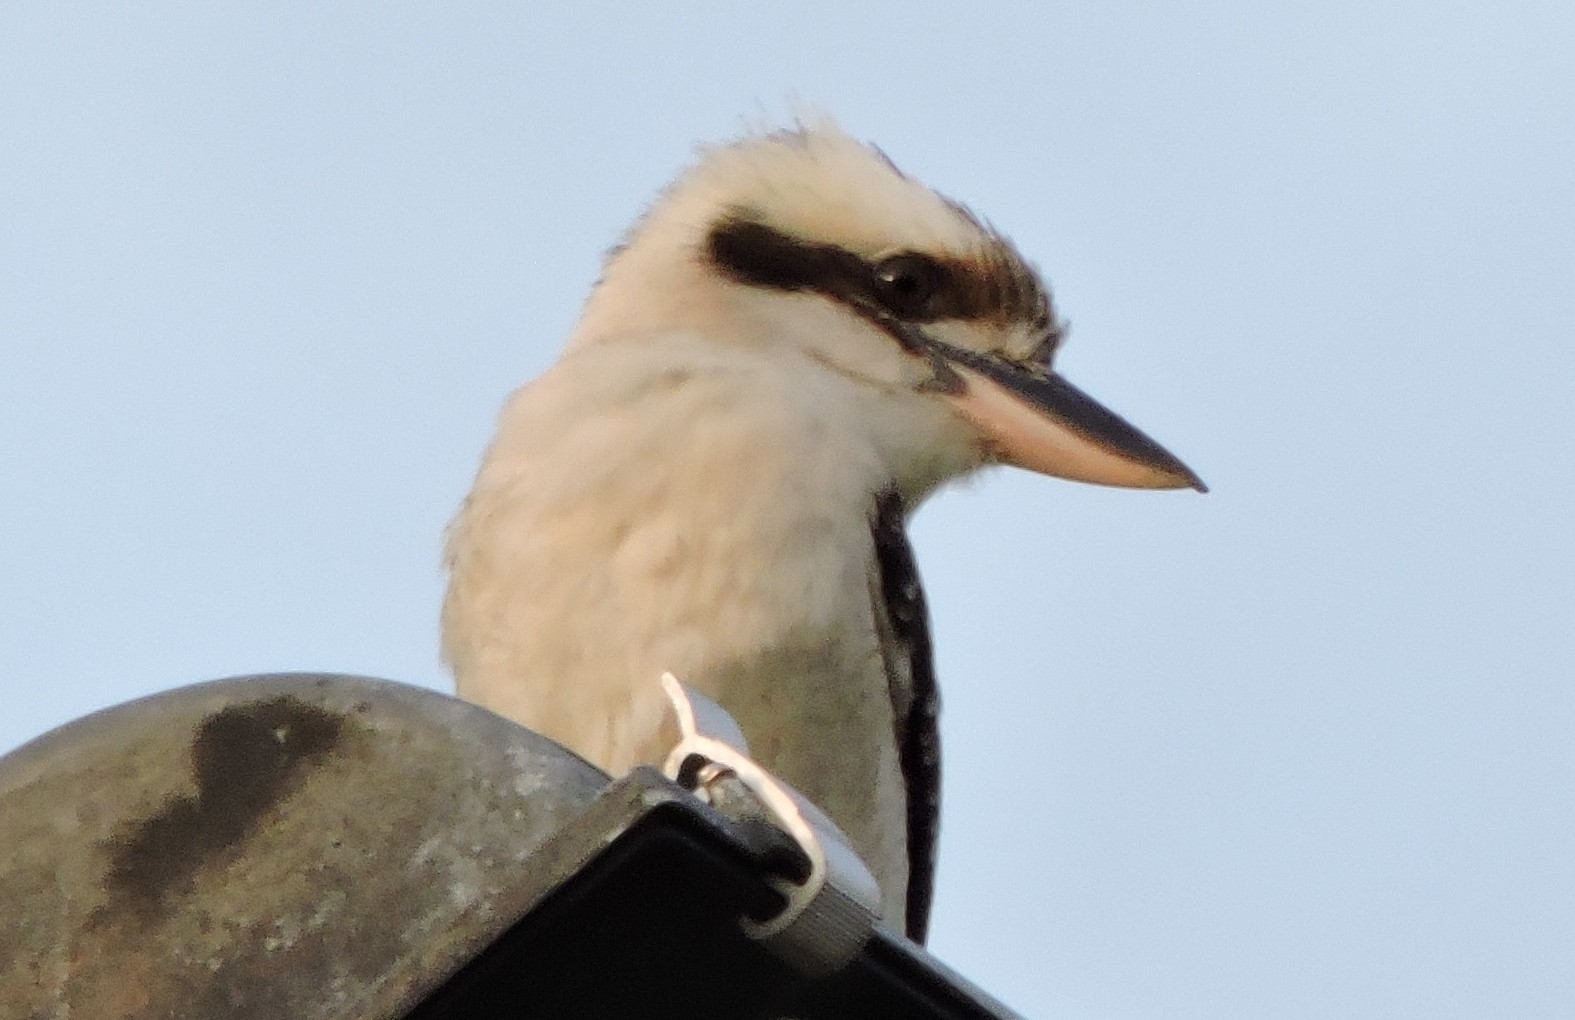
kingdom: Animalia
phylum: Chordata
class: Aves
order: Coraciiformes
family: Alcedinidae
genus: Dacelo
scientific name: Dacelo novaeguineae
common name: Laughing kookaburra
